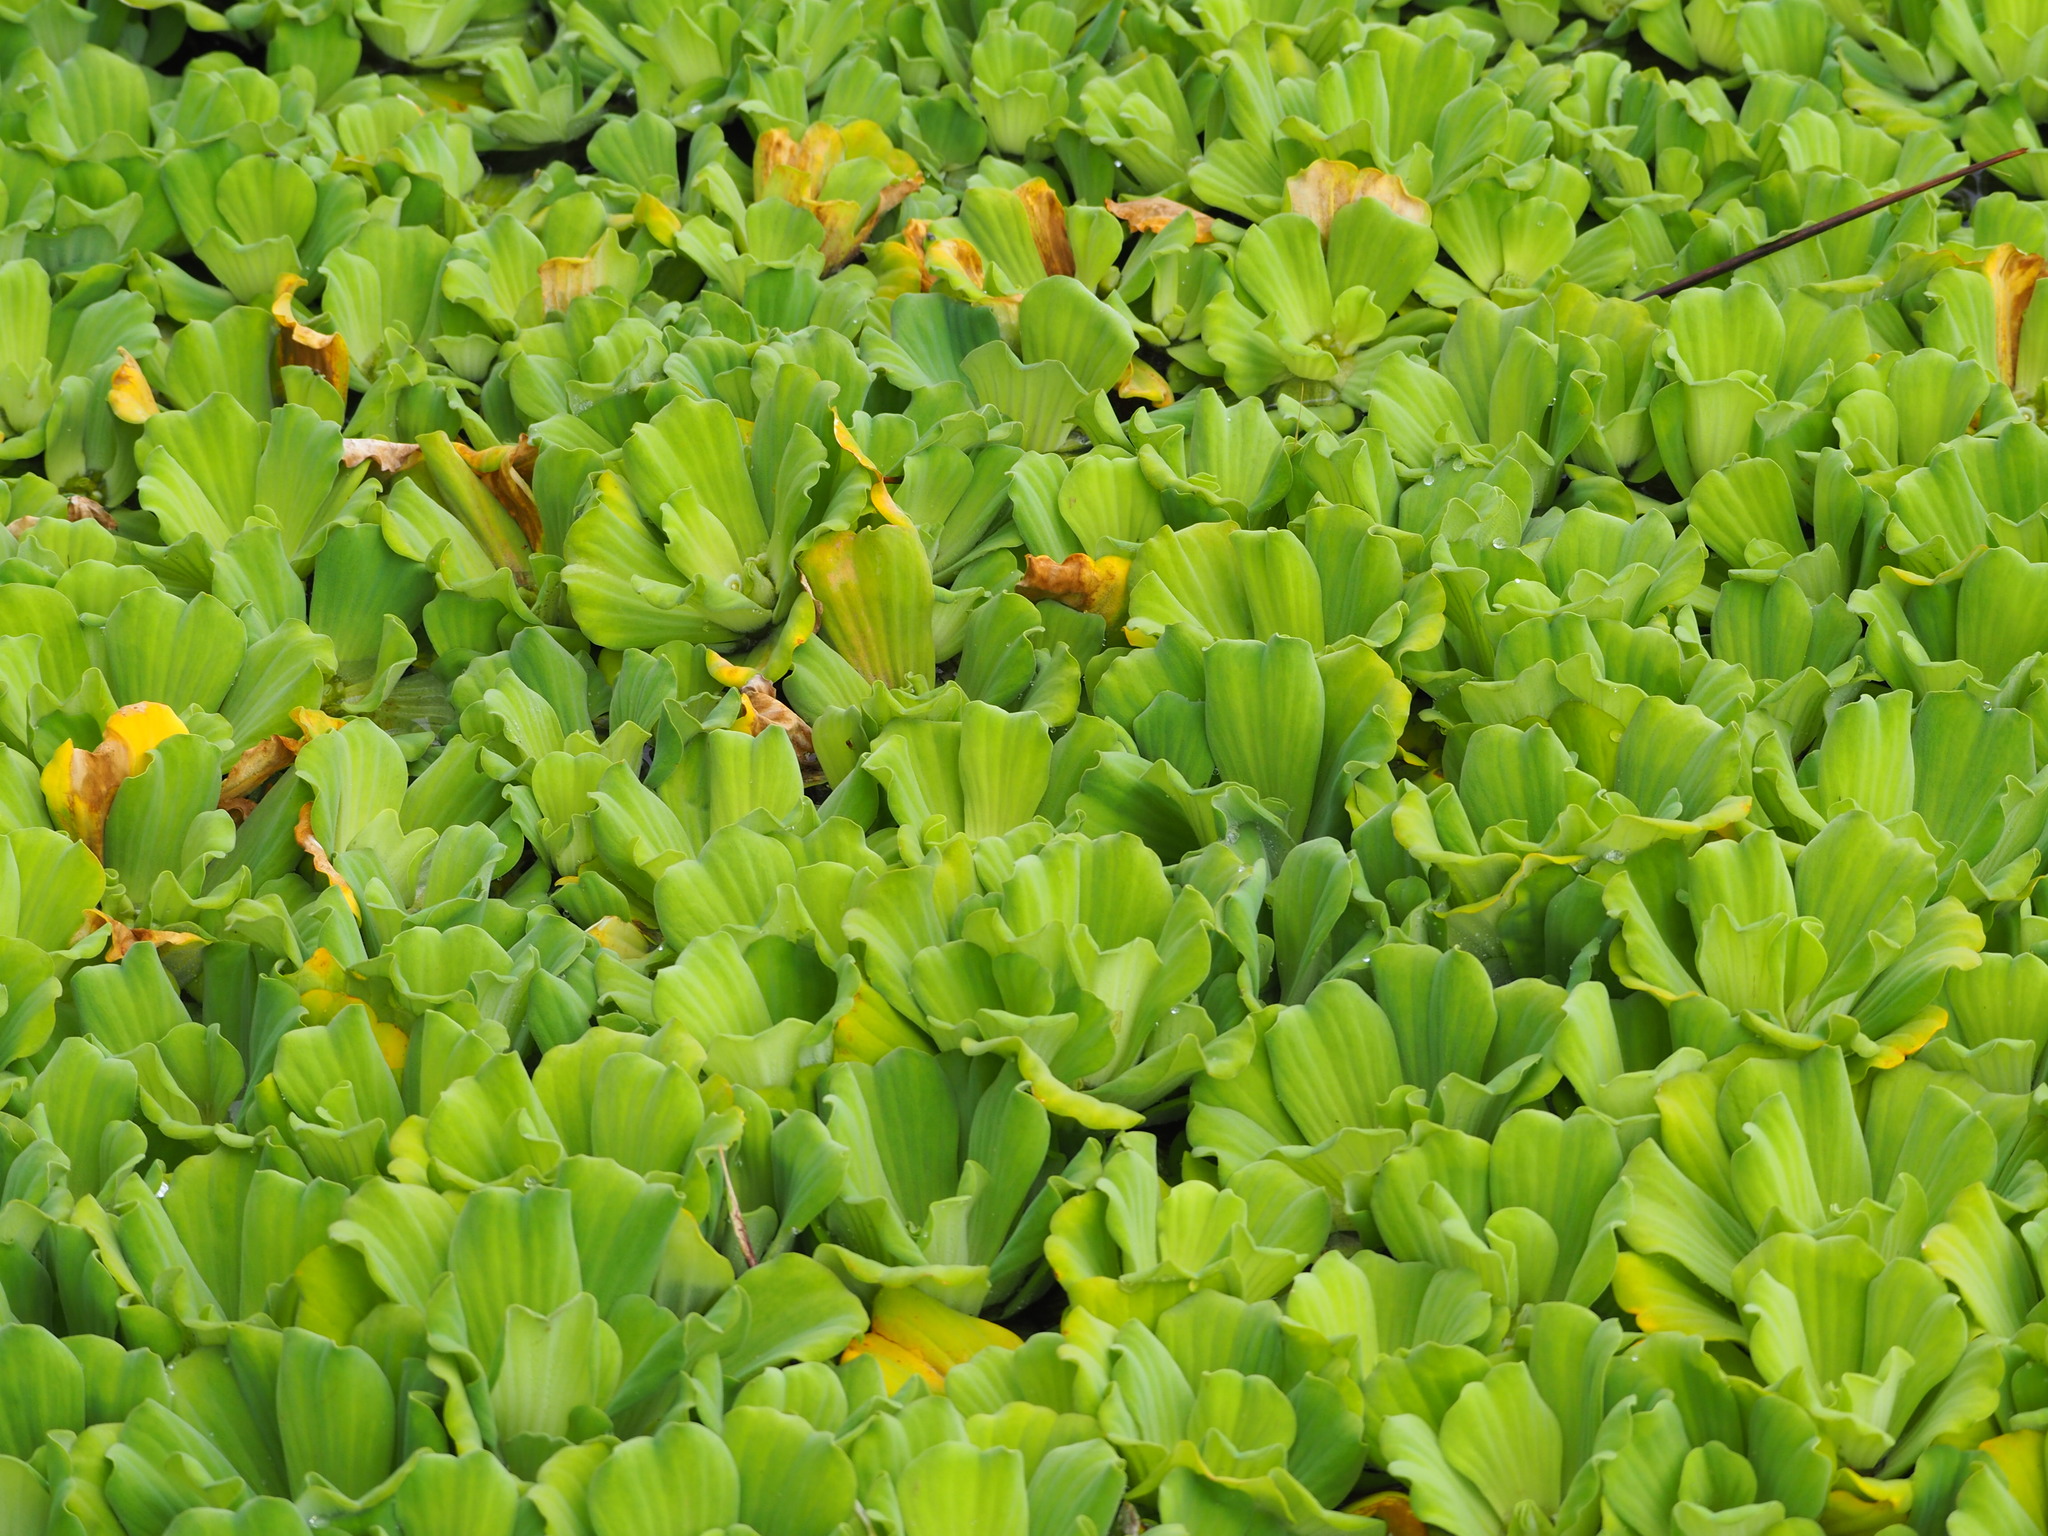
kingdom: Plantae
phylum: Tracheophyta
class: Liliopsida
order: Alismatales
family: Araceae
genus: Pistia
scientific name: Pistia stratiotes
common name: Water lettuce
